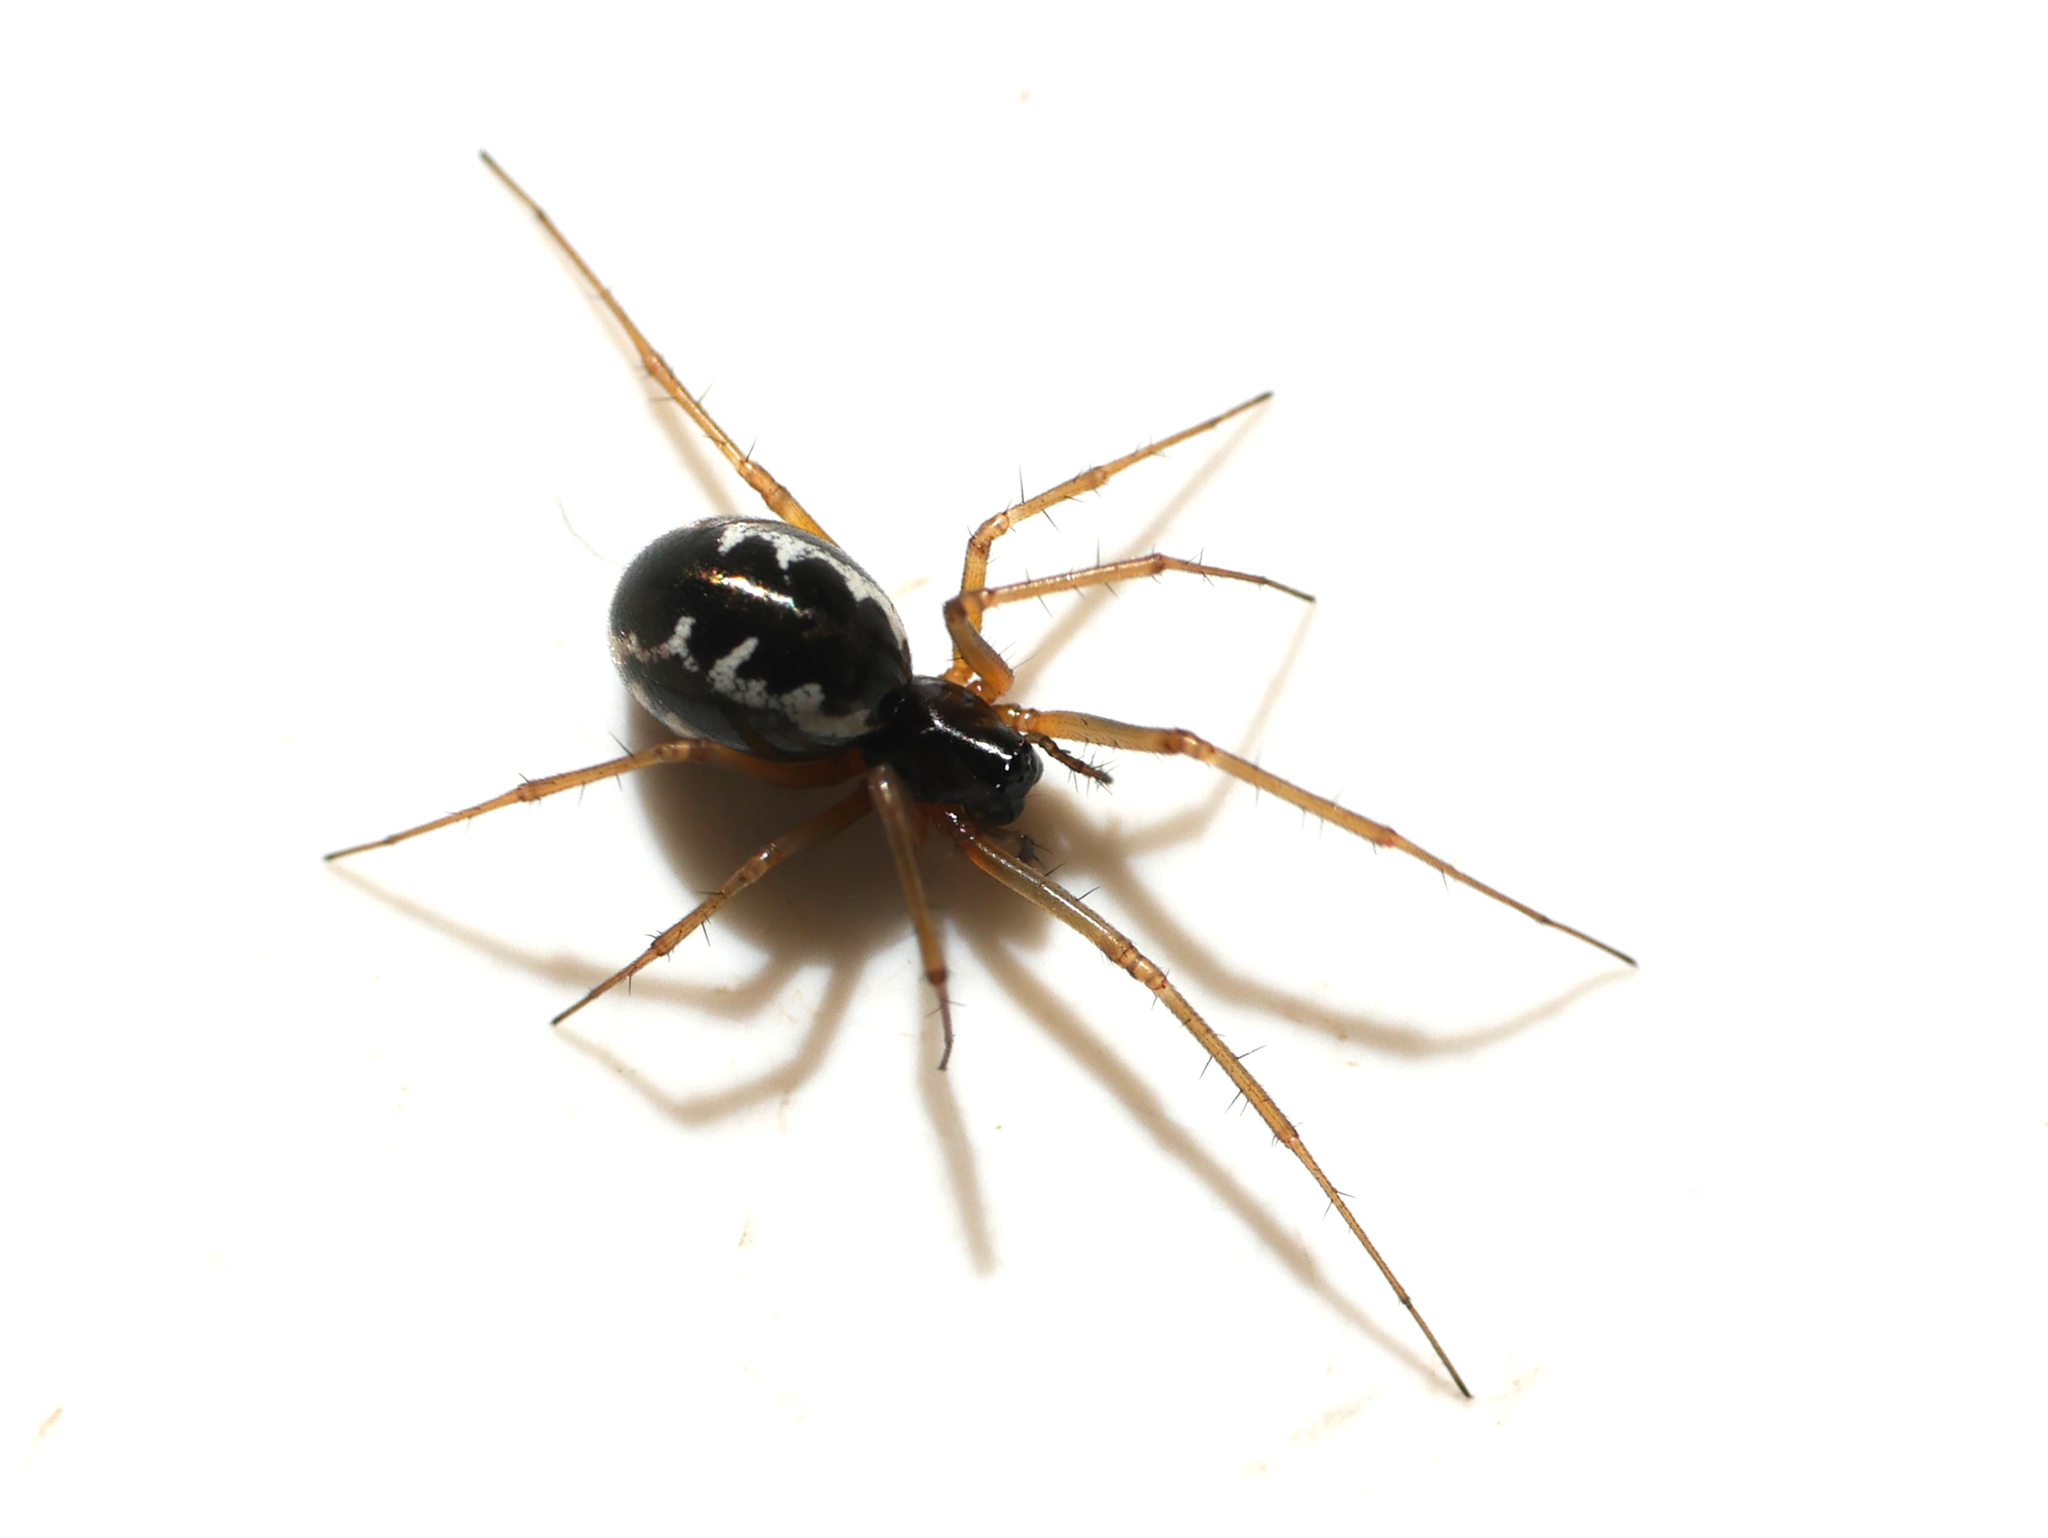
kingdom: Animalia
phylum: Arthropoda
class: Arachnida
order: Araneae
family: Linyphiidae
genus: Linyphia
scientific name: Linyphia hortensis
